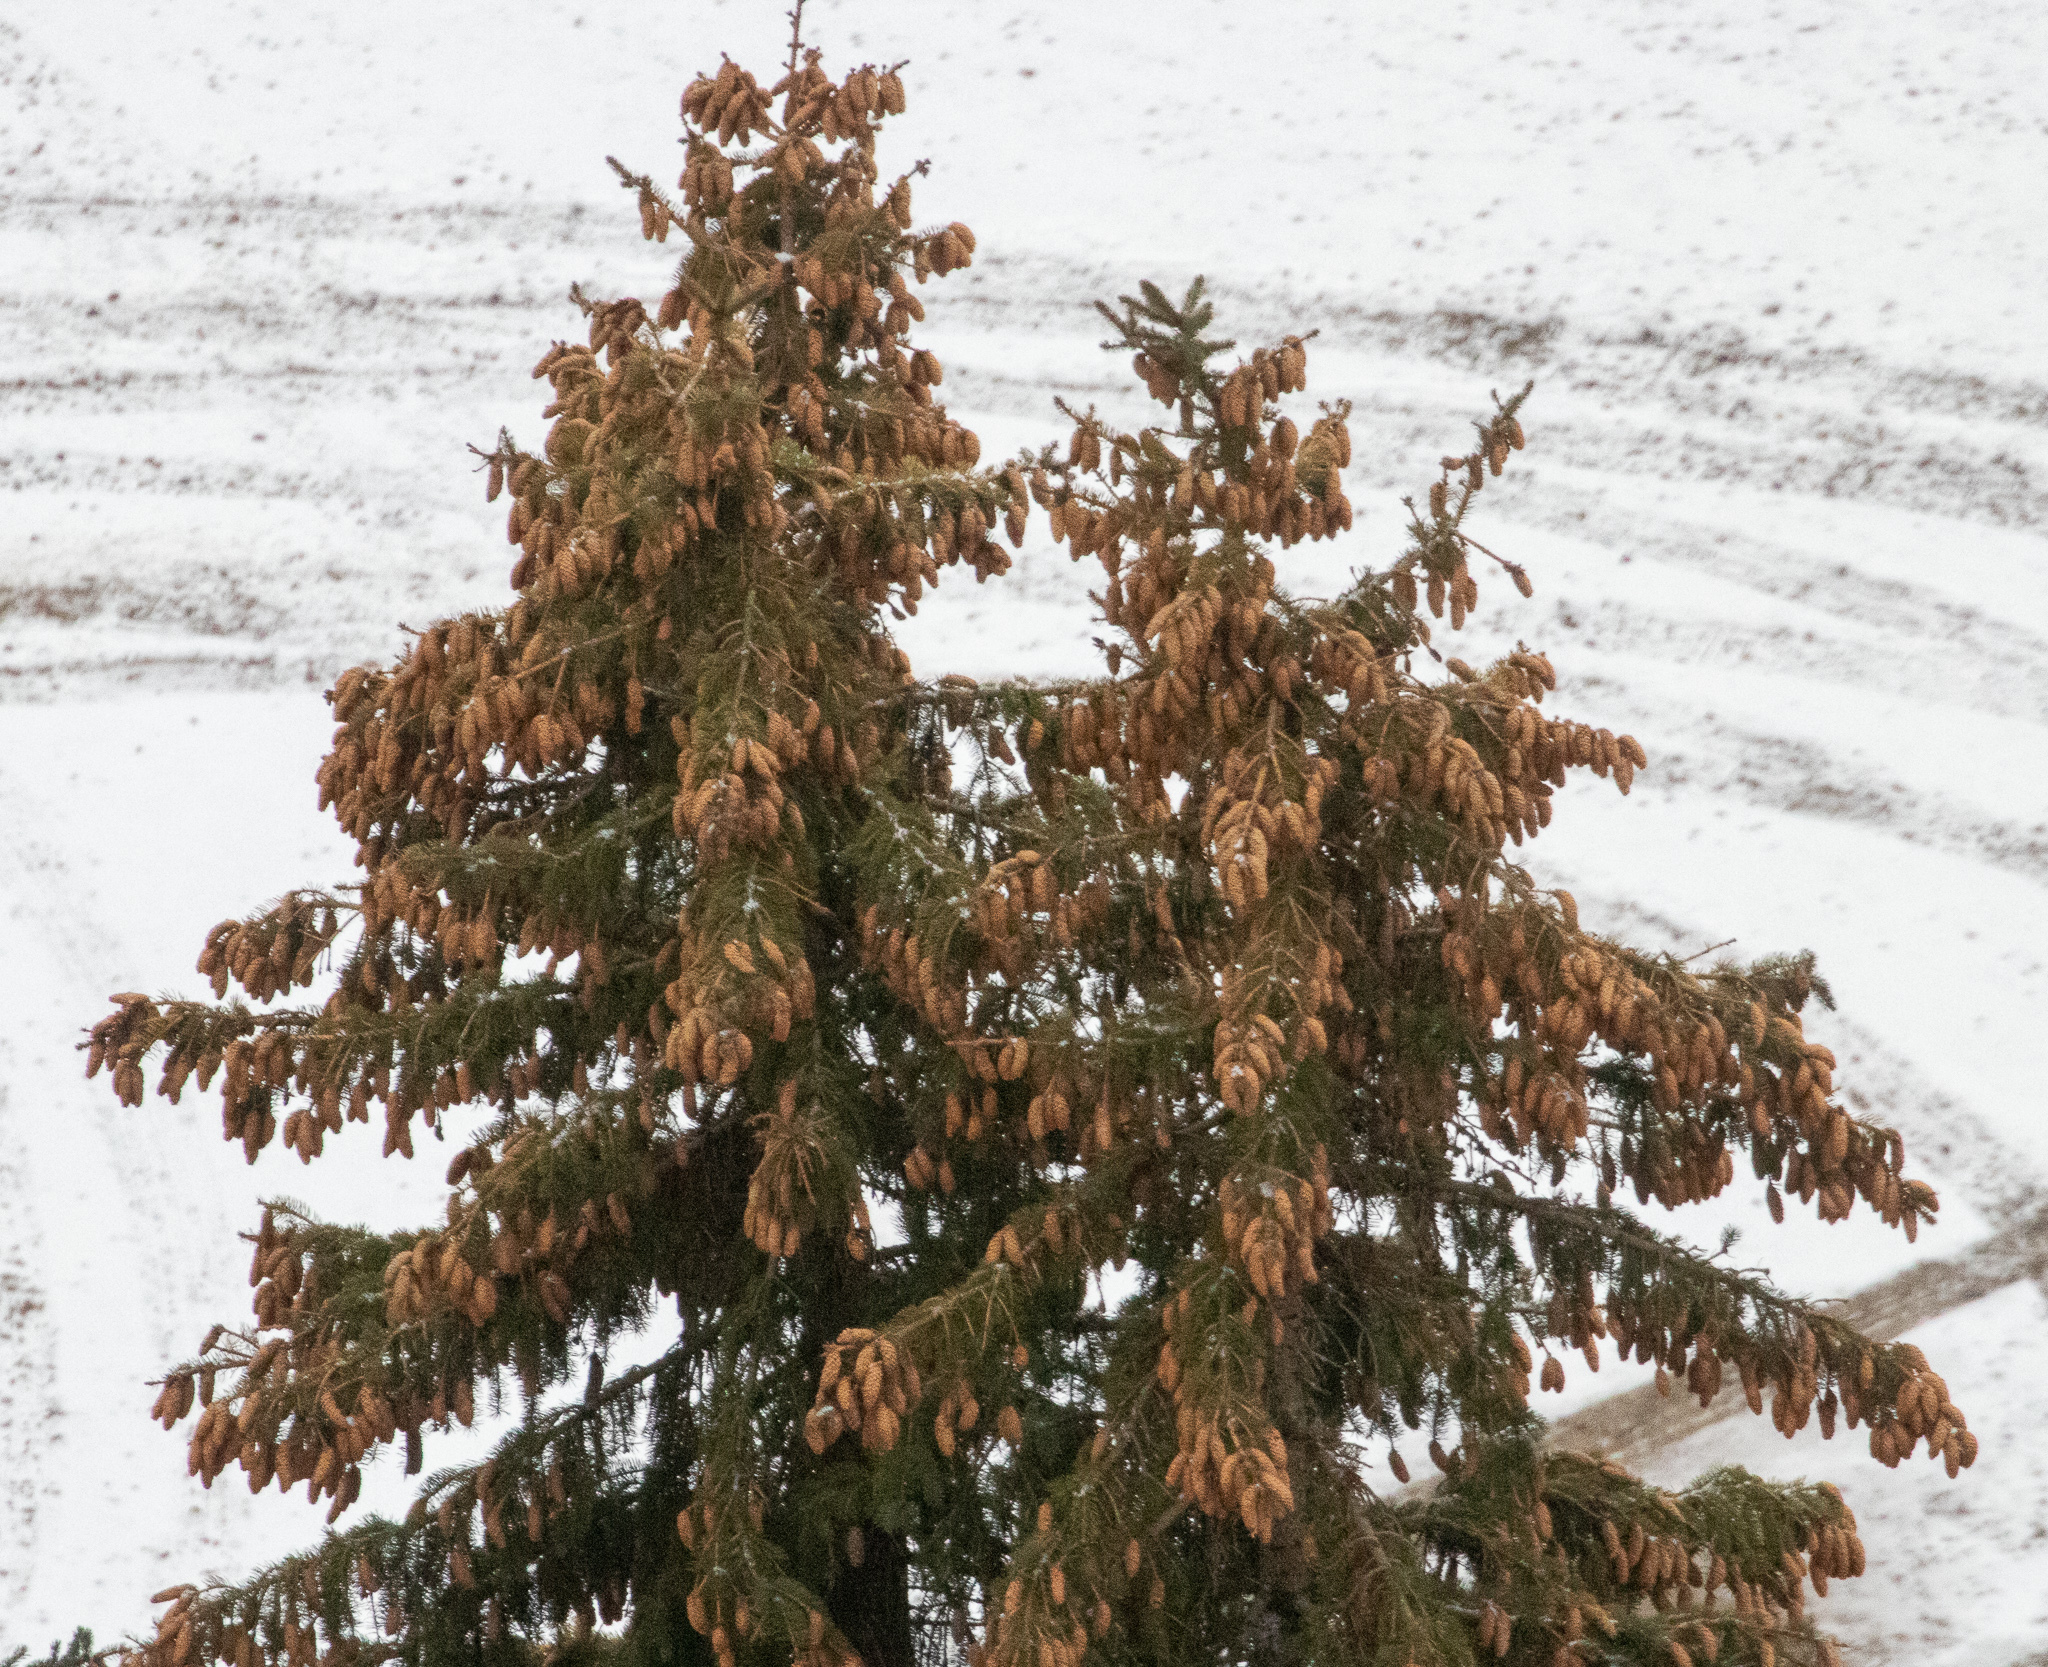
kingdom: Plantae
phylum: Tracheophyta
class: Pinopsida
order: Pinales
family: Pinaceae
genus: Picea
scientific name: Picea abies
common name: Norway spruce
